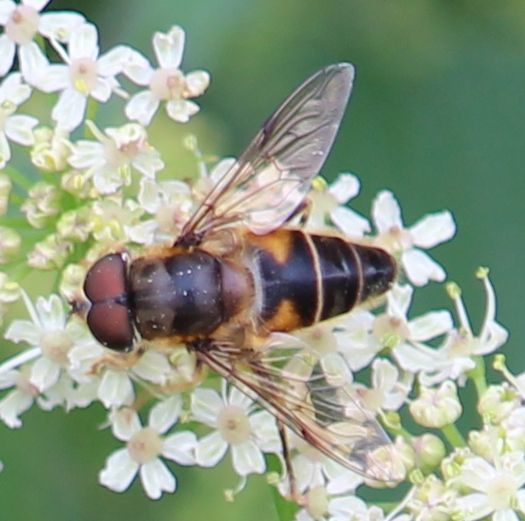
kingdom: Animalia
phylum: Arthropoda
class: Insecta
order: Diptera
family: Syrphidae
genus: Eristalis
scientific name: Eristalis pertinax
